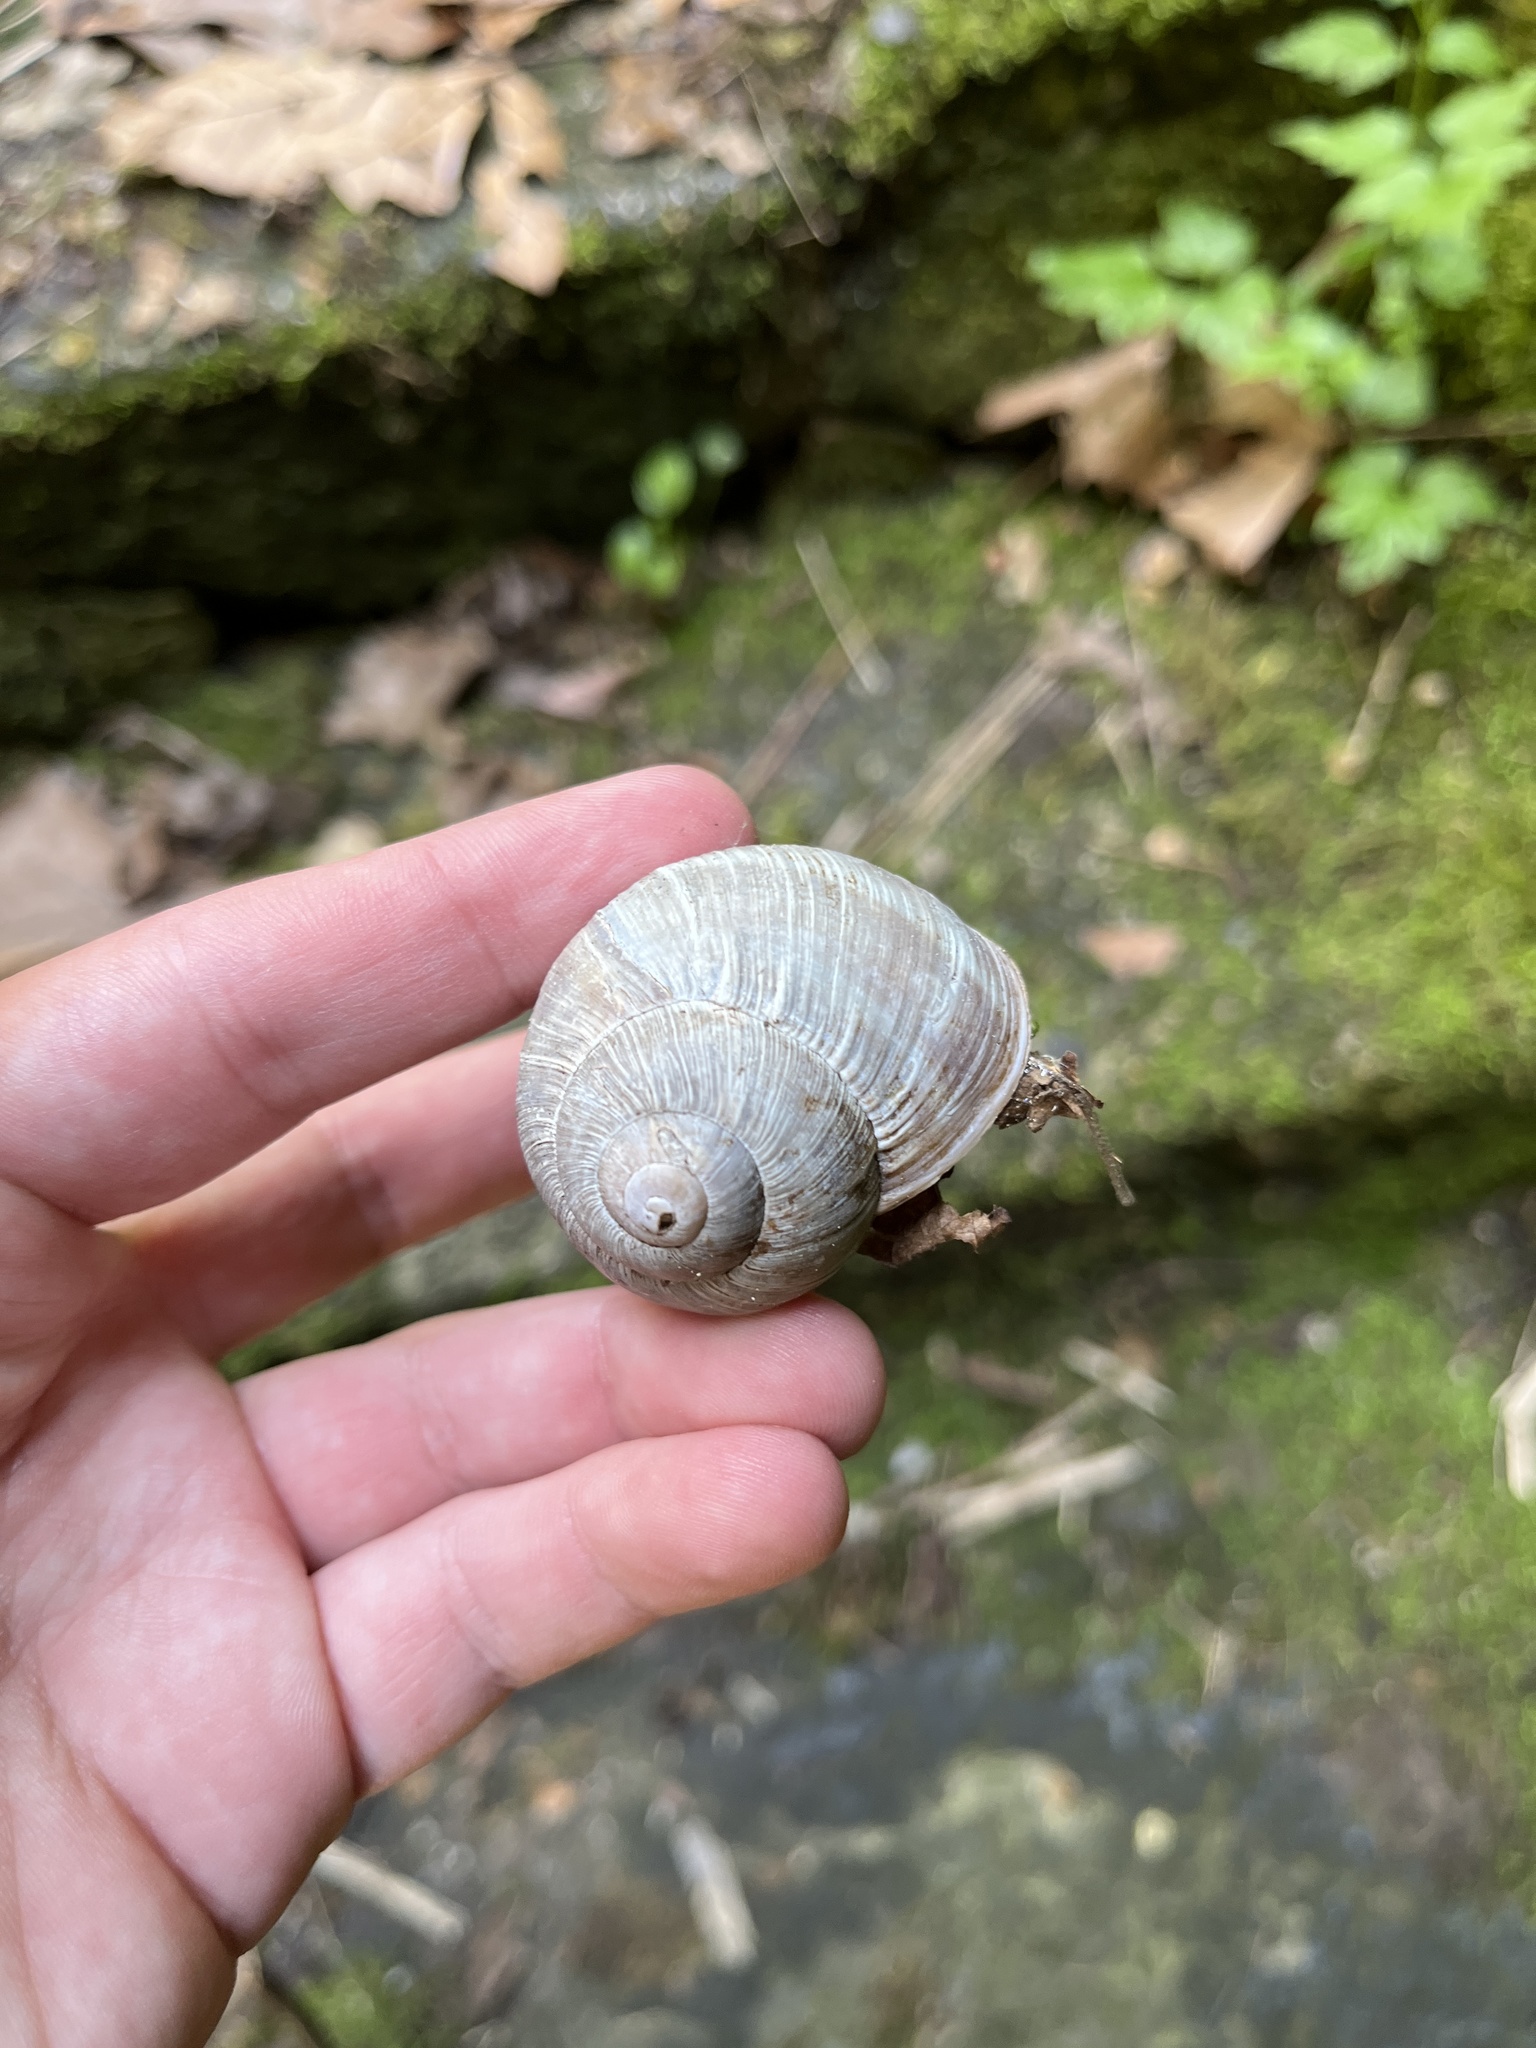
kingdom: Animalia
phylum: Mollusca
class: Gastropoda
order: Stylommatophora
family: Helicidae
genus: Helix
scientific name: Helix pomatia
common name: Roman snail
